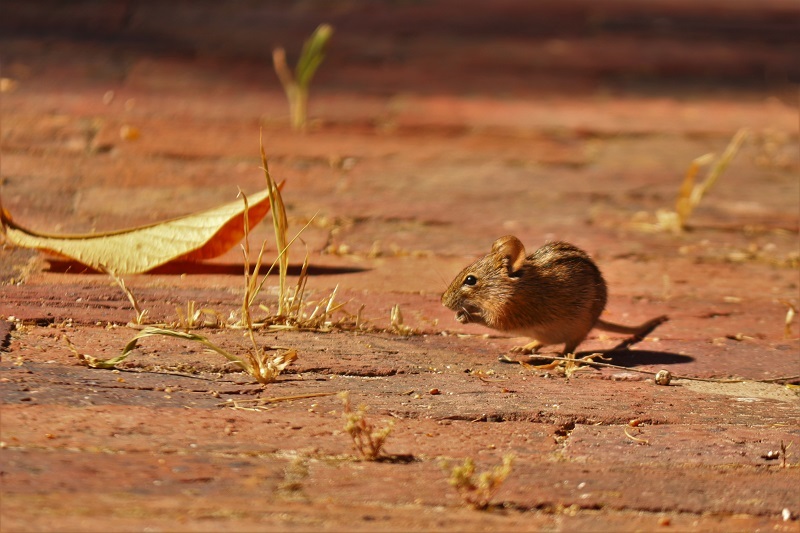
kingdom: Animalia
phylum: Chordata
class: Mammalia
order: Rodentia
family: Muridae
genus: Rhabdomys
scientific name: Rhabdomys pumilio
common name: Xeric four-striped grass rat
